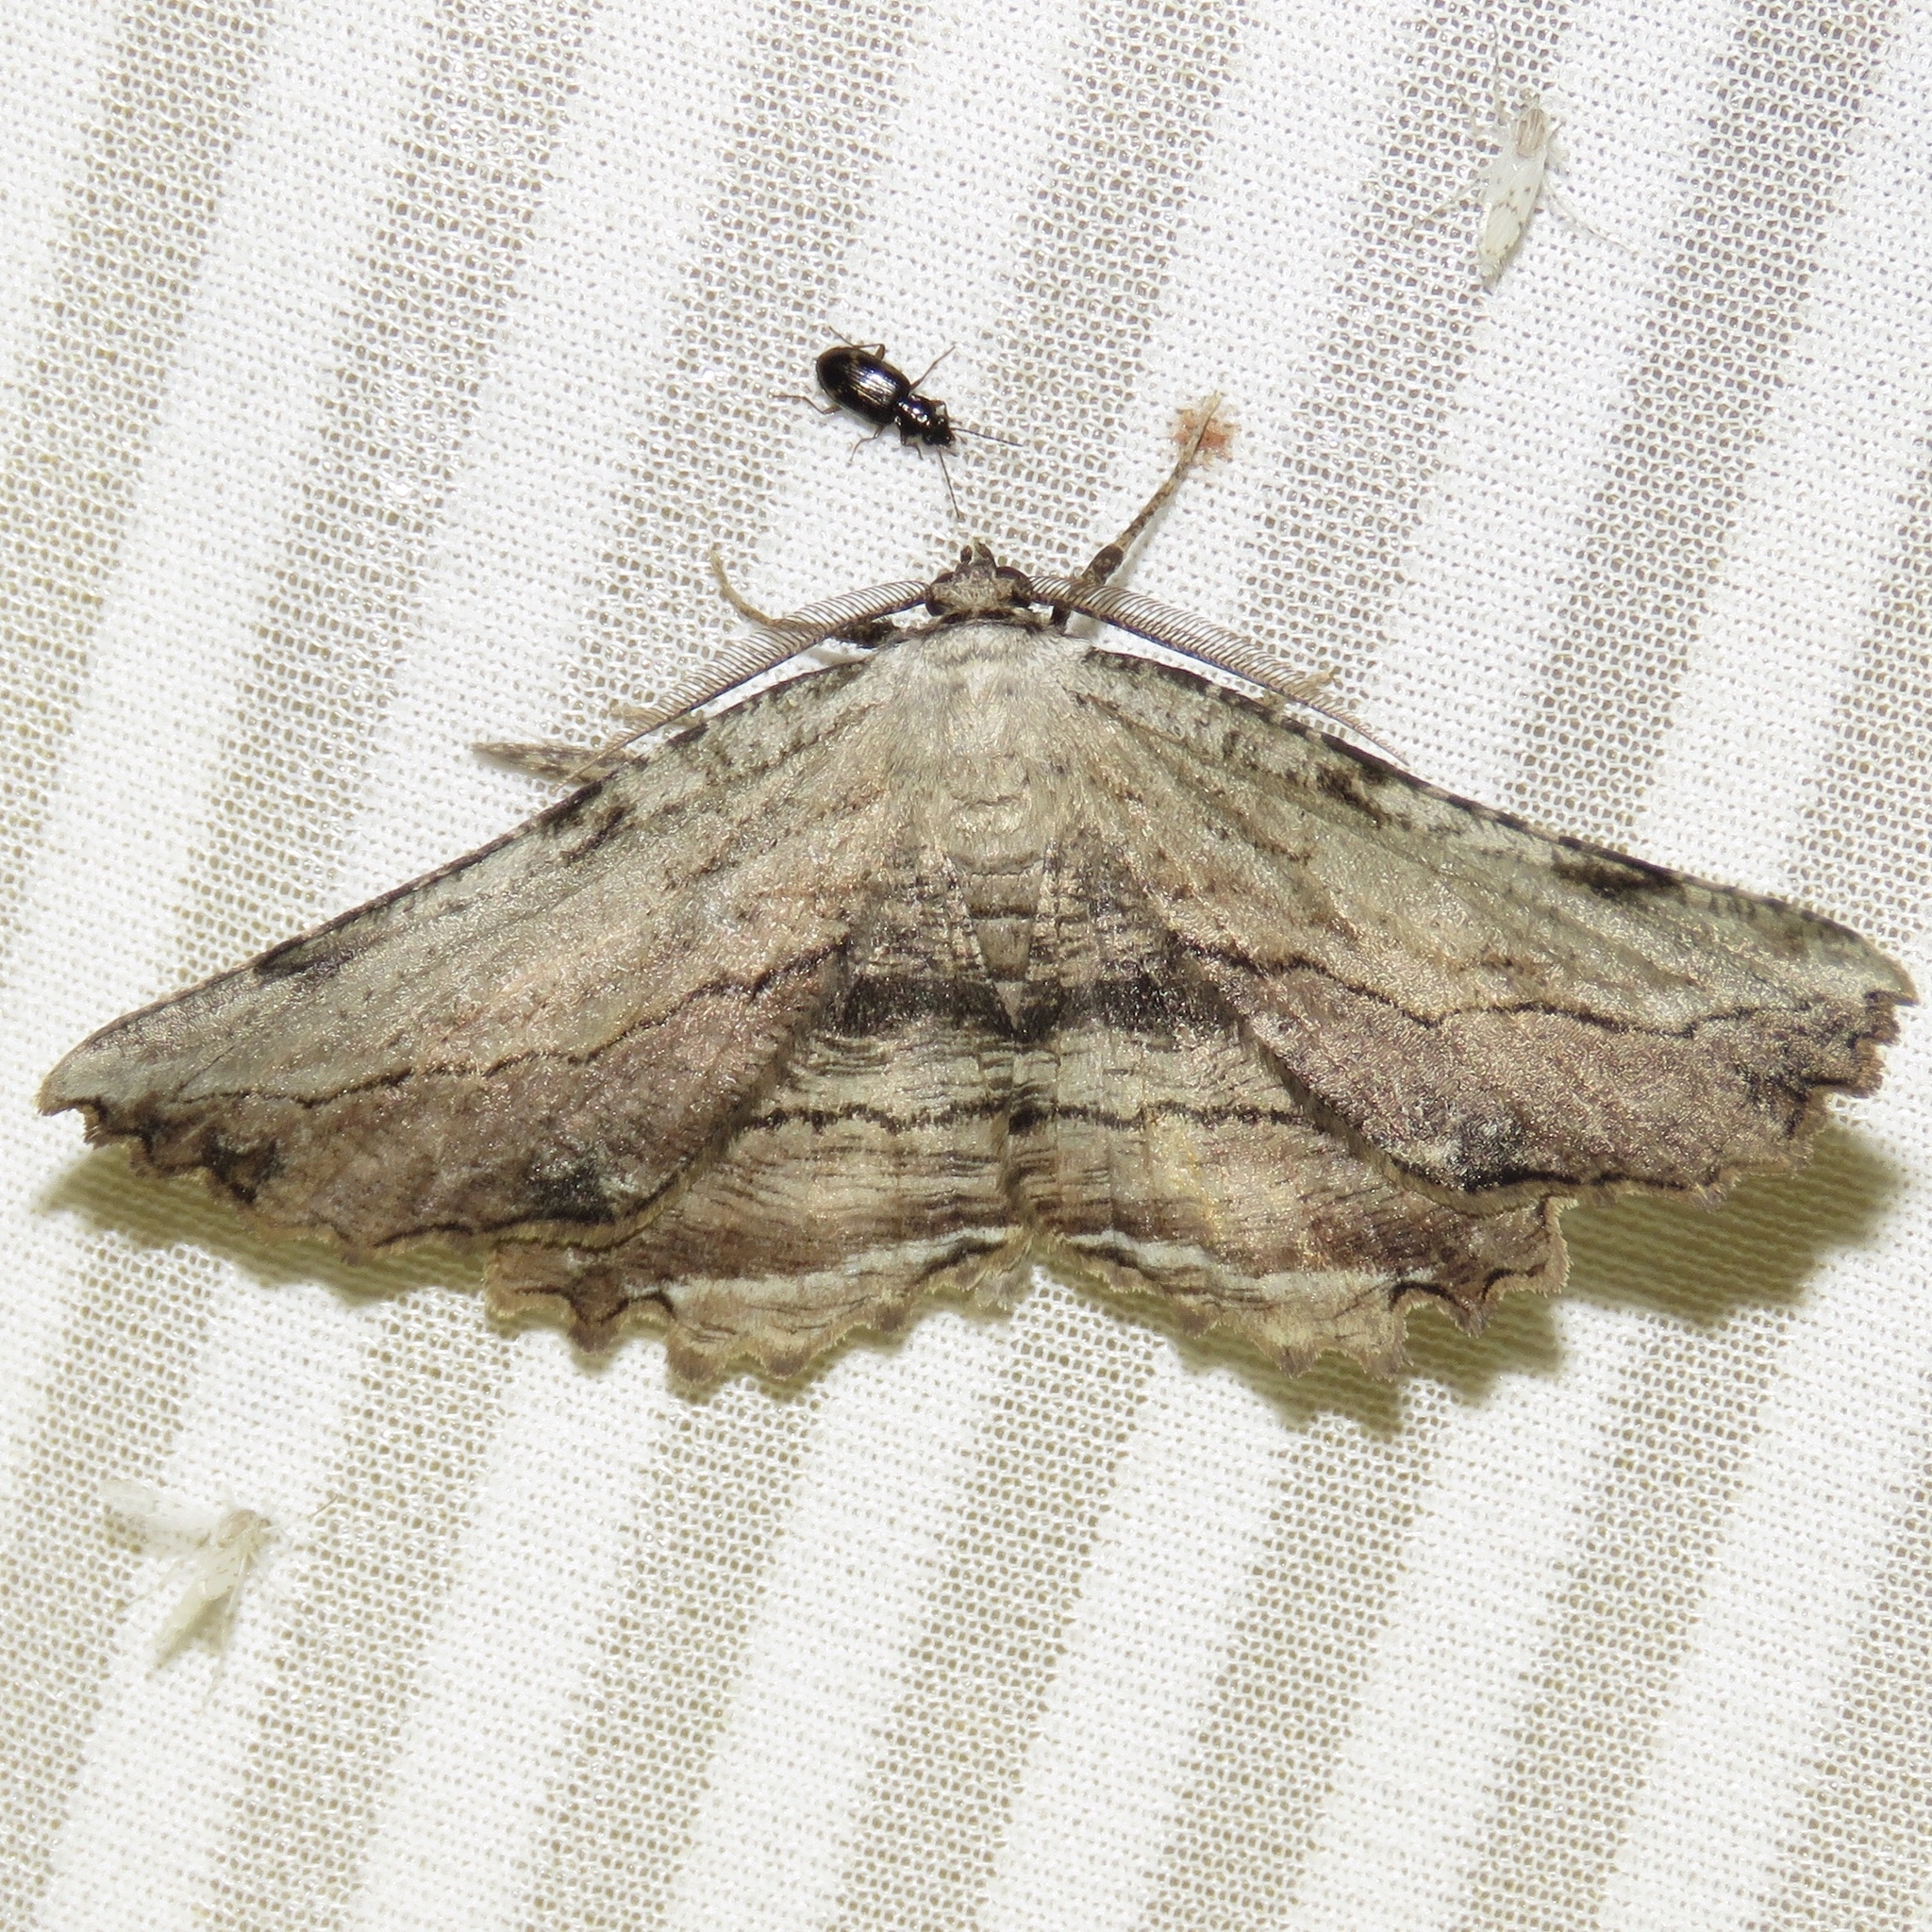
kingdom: Animalia
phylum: Arthropoda
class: Insecta
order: Lepidoptera
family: Geometridae
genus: Lytrosis
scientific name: Lytrosis unitaria
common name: Common lytrosis
